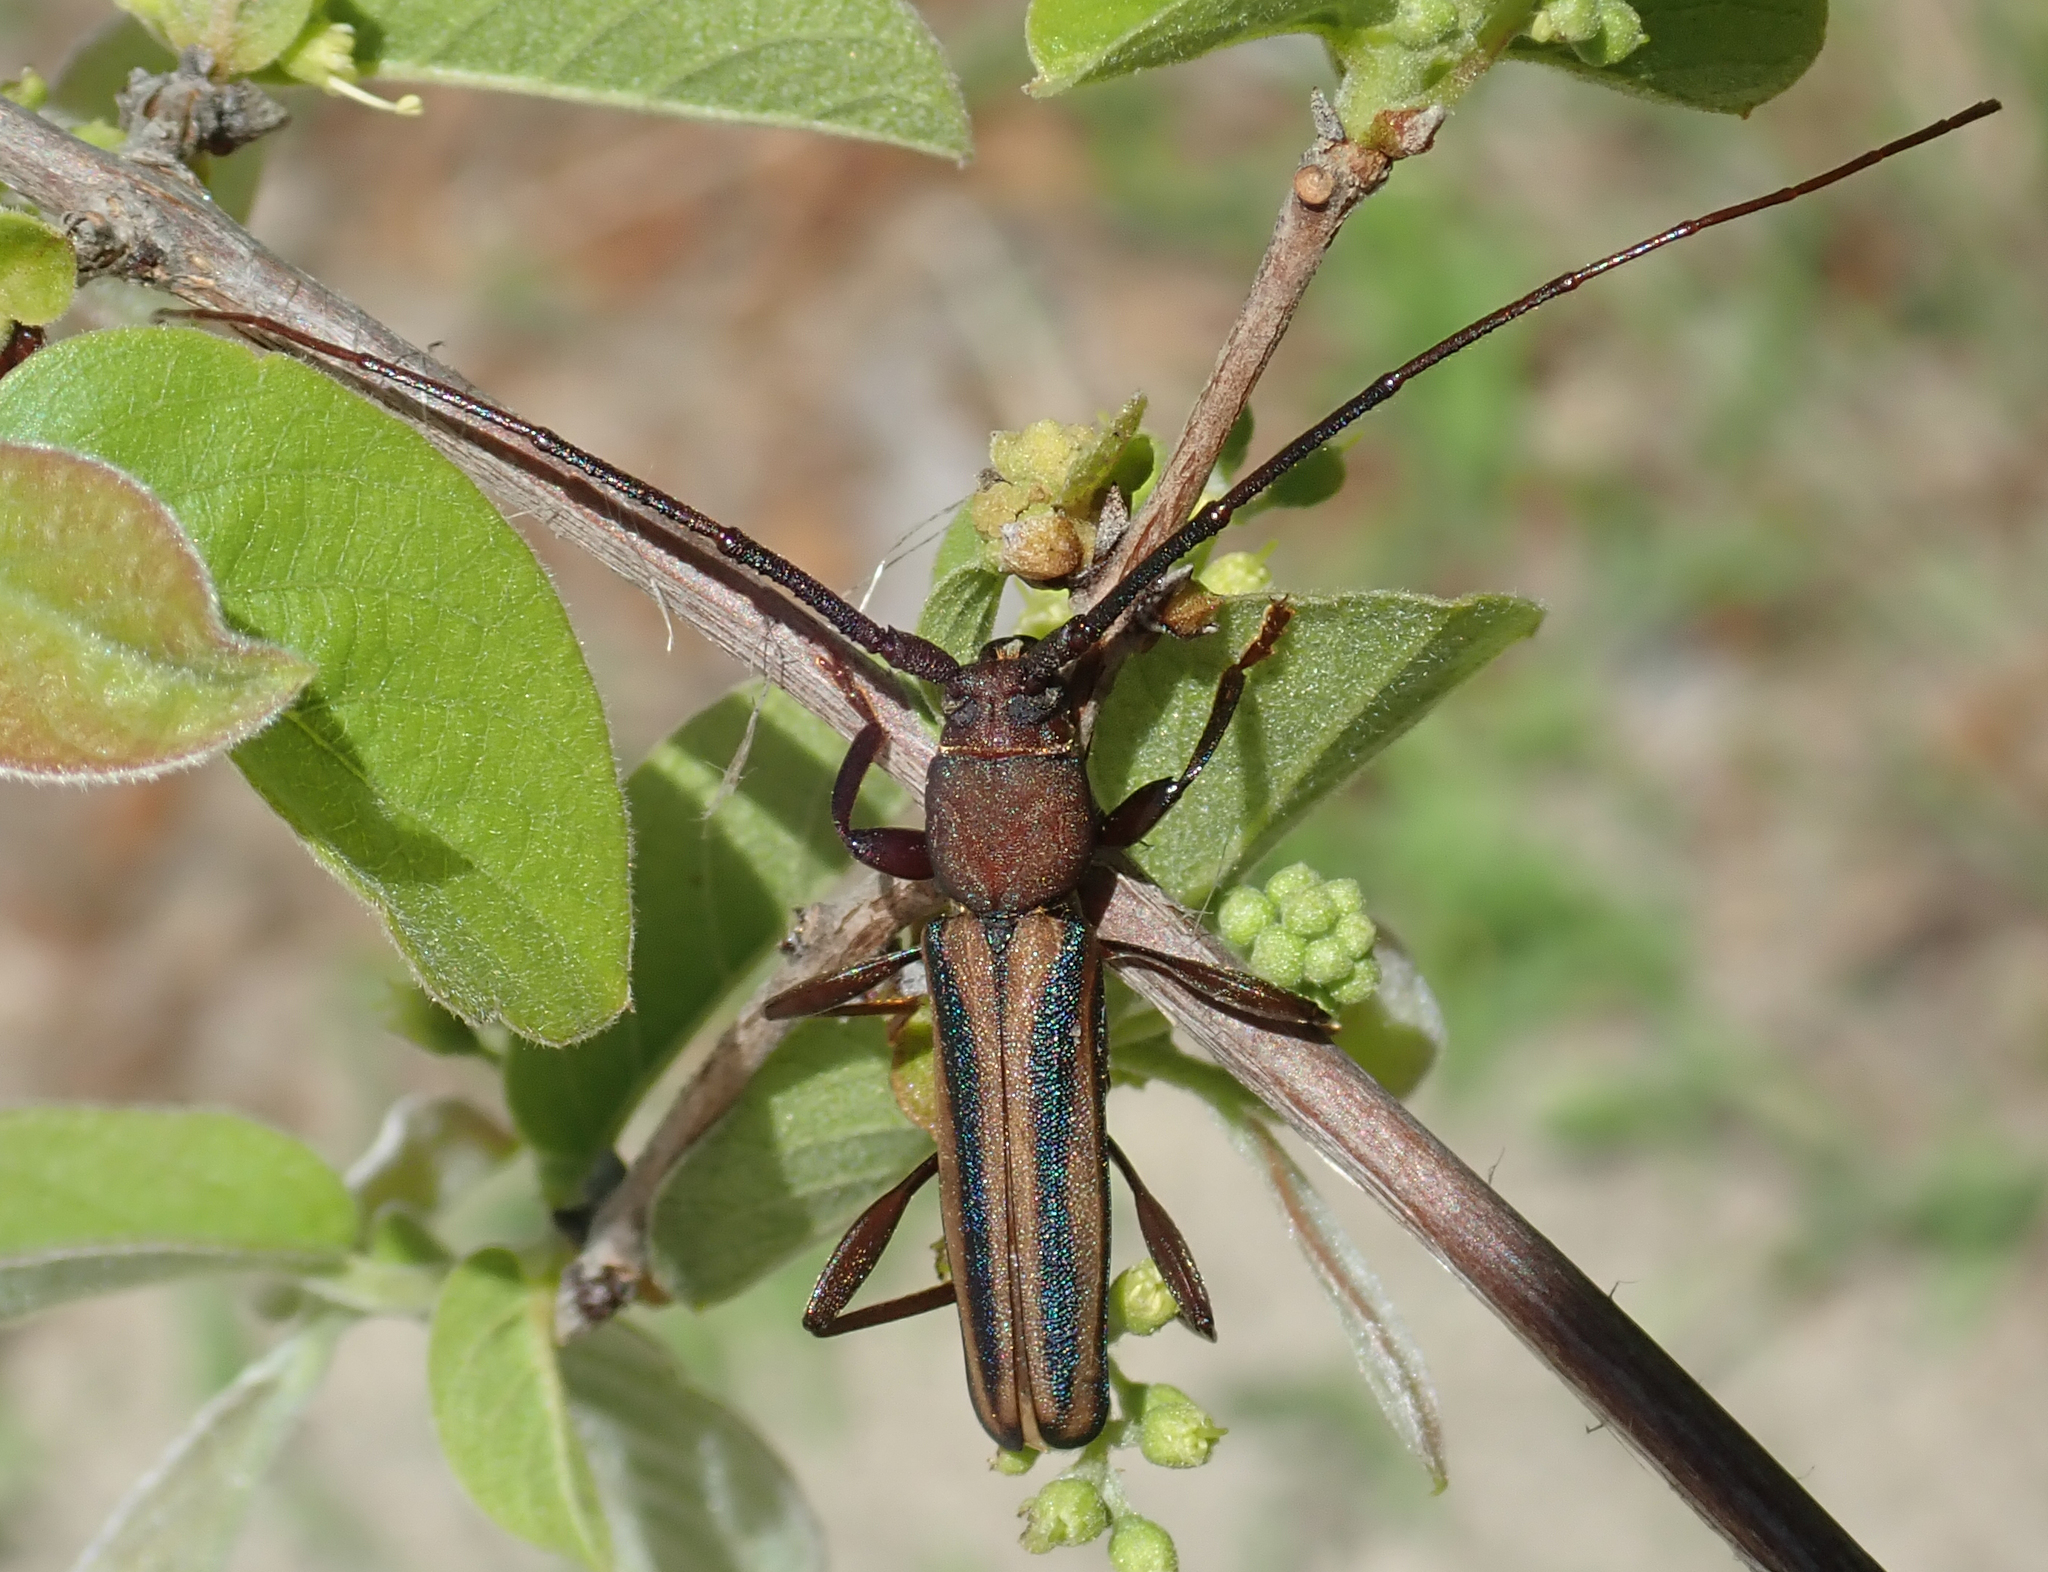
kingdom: Animalia
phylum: Arthropoda
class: Insecta
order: Coleoptera
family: Cerambycidae
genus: Xystrocera
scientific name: Xystrocera dispar
